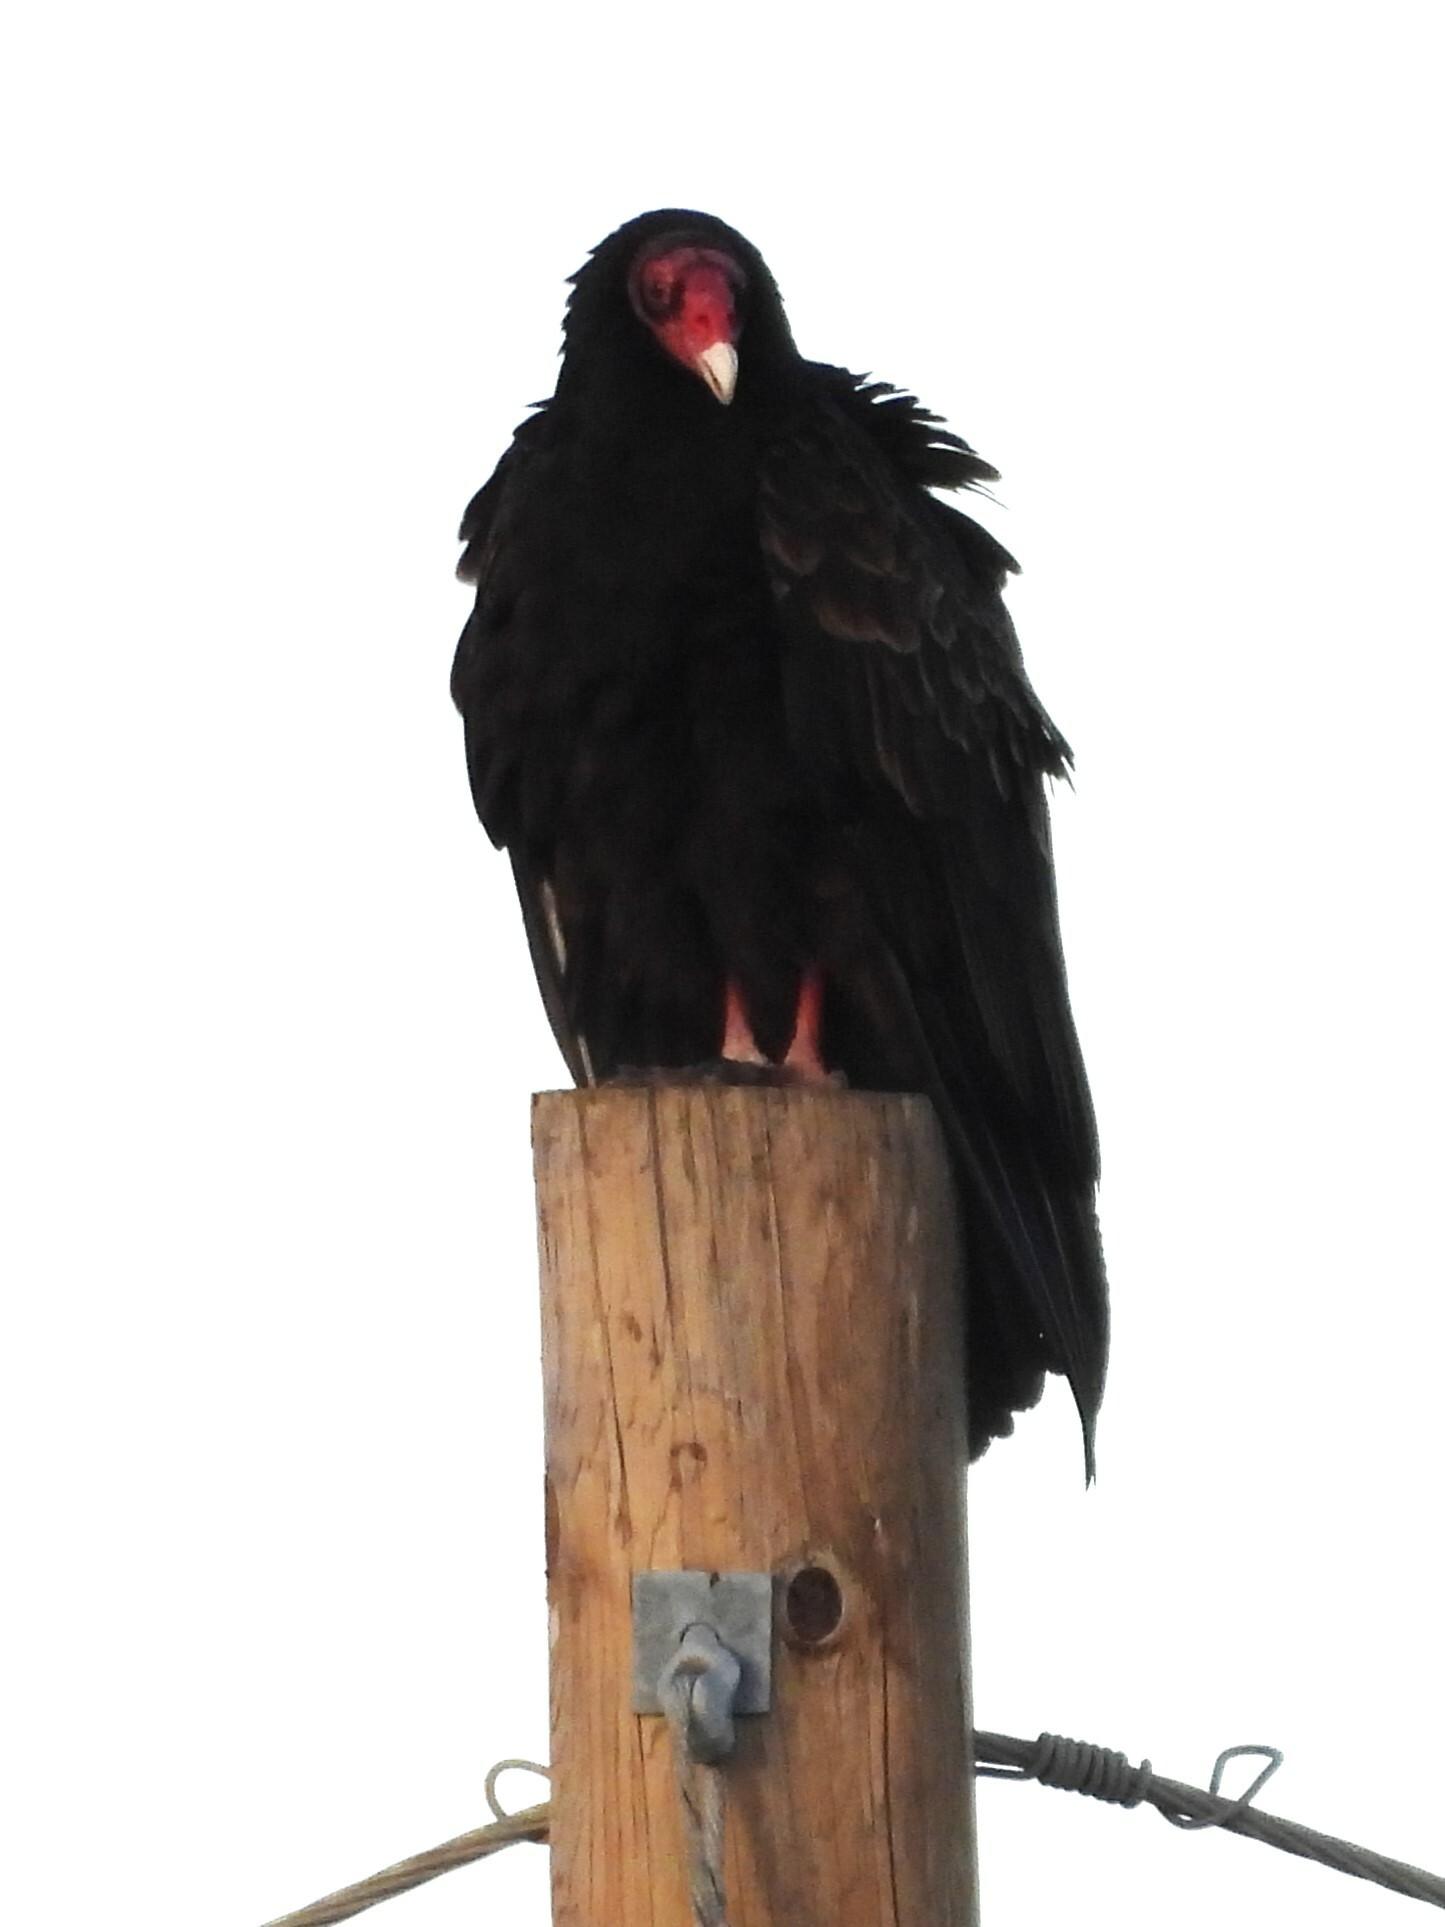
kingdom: Animalia
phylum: Chordata
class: Aves
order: Accipitriformes
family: Cathartidae
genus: Cathartes
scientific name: Cathartes aura
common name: Turkey vulture
